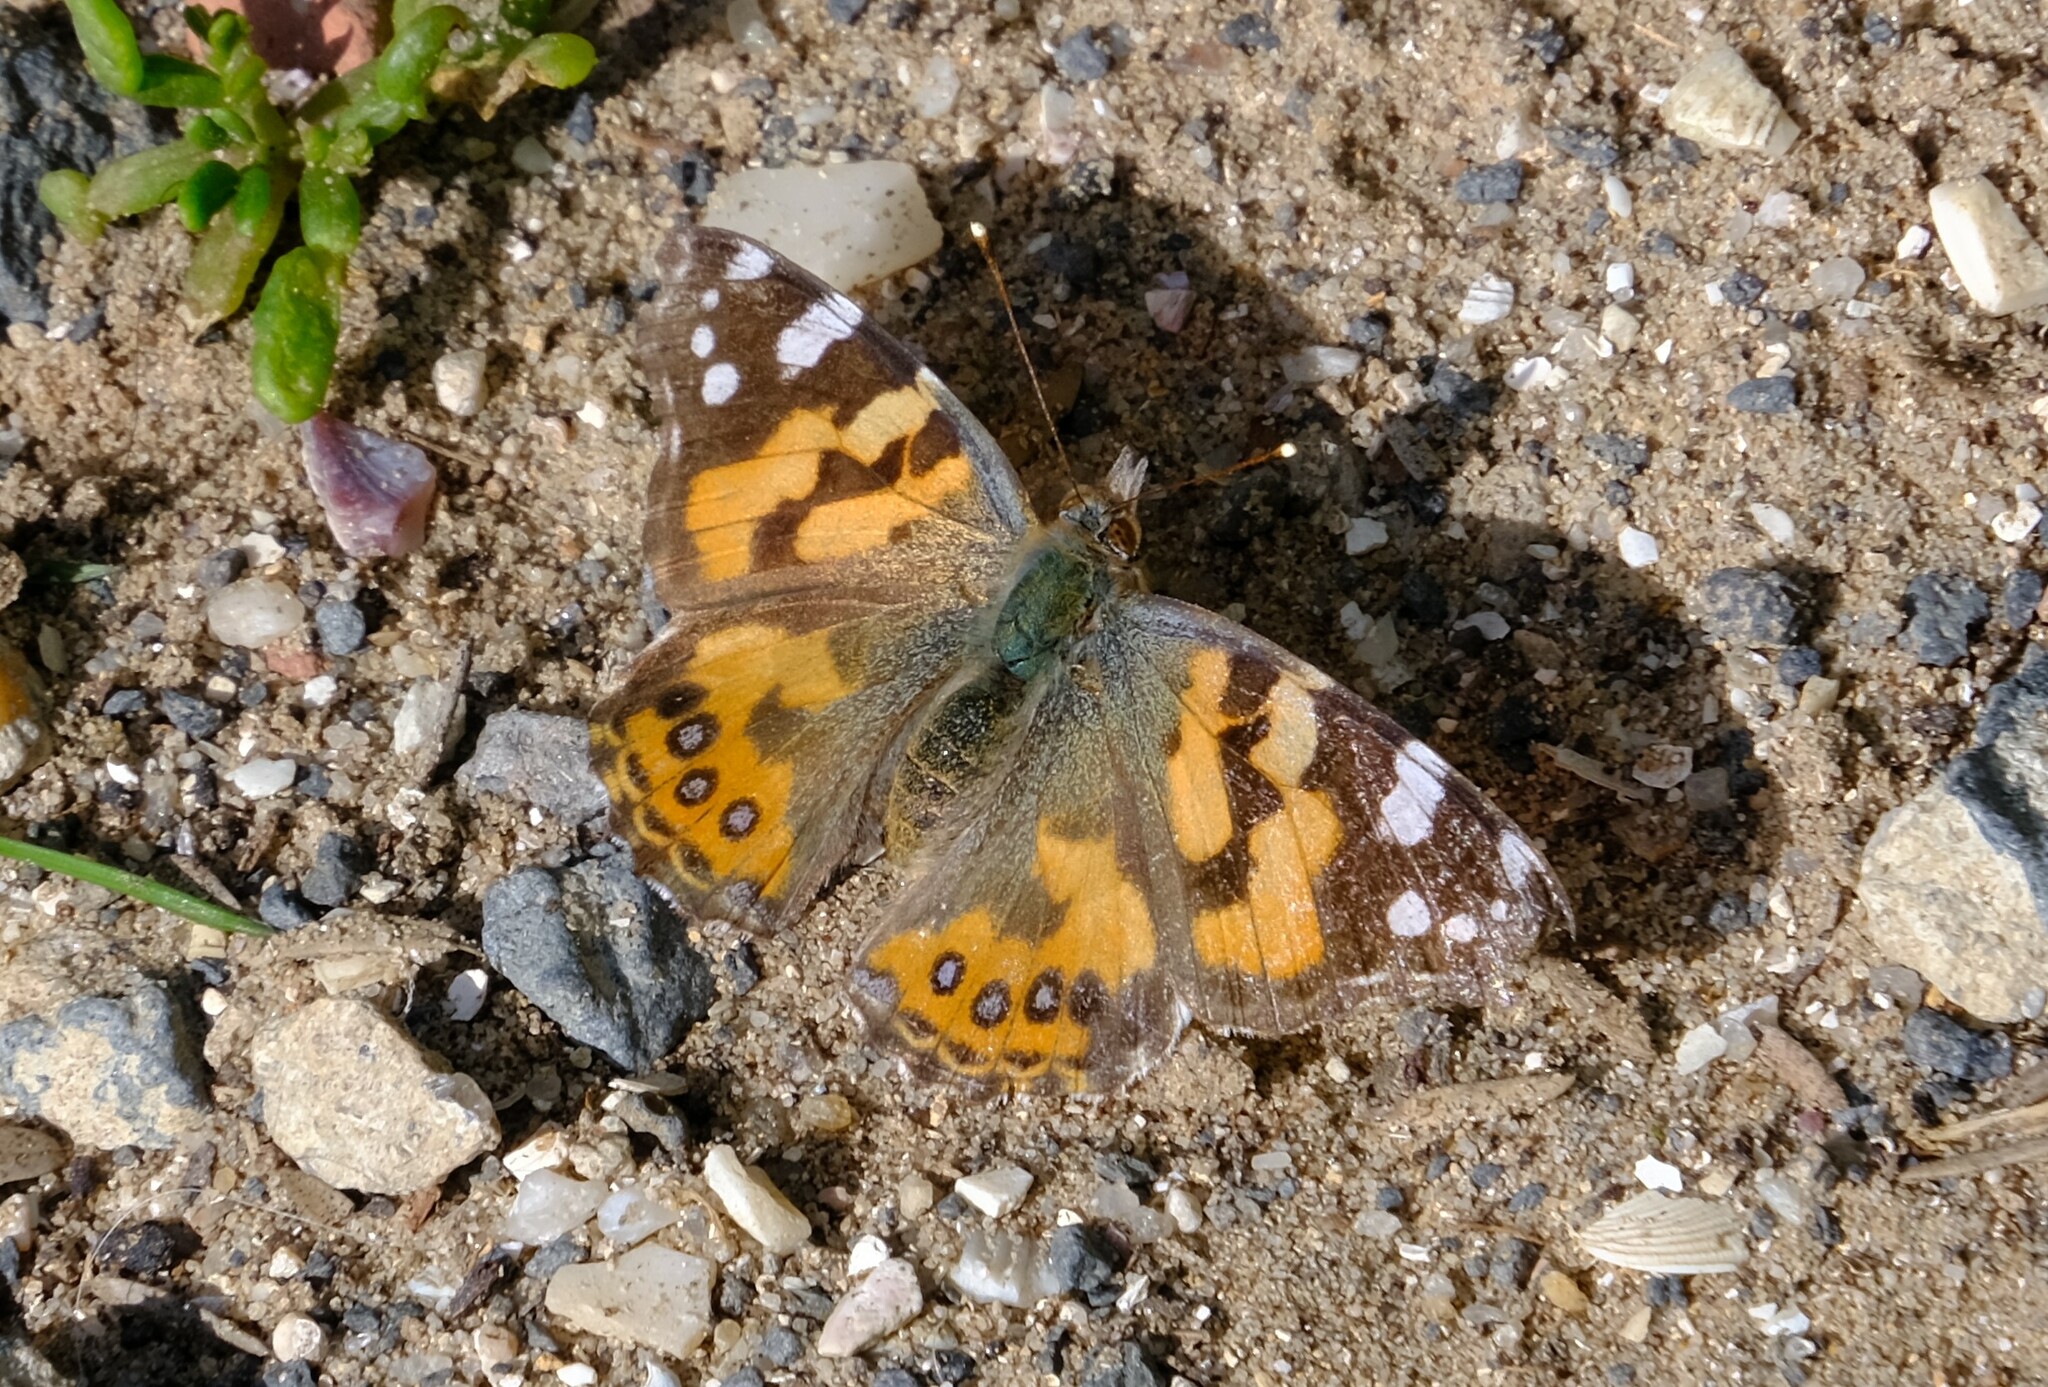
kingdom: Animalia
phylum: Arthropoda
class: Insecta
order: Lepidoptera
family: Nymphalidae
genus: Vanessa
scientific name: Vanessa kershawi
